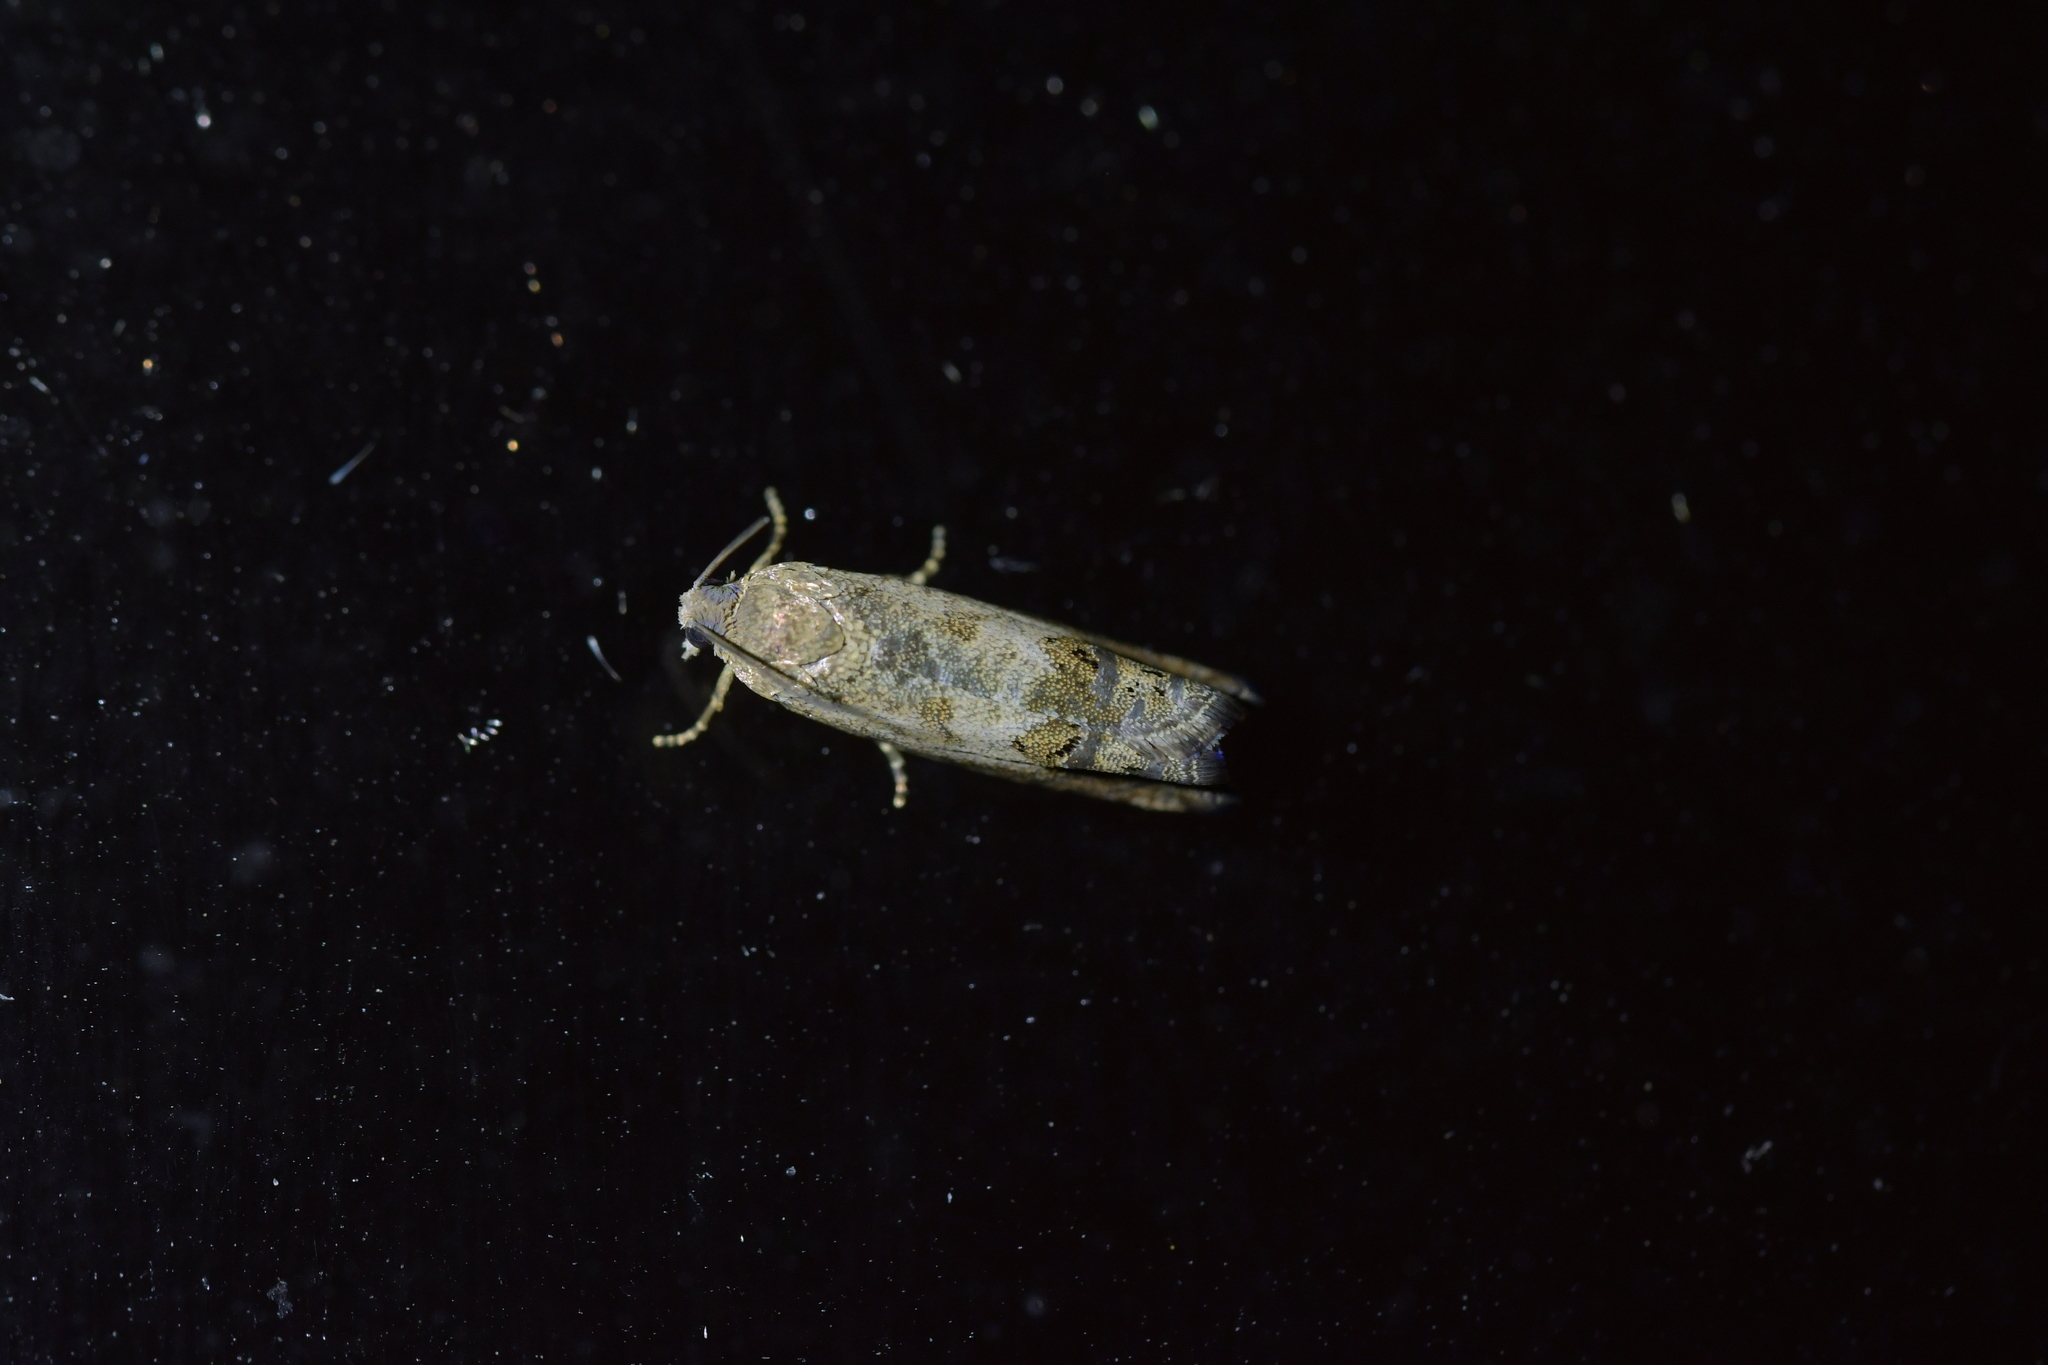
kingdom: Animalia
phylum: Arthropoda
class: Insecta
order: Lepidoptera
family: Tortricidae
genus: Cydia
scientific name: Cydia succedana
